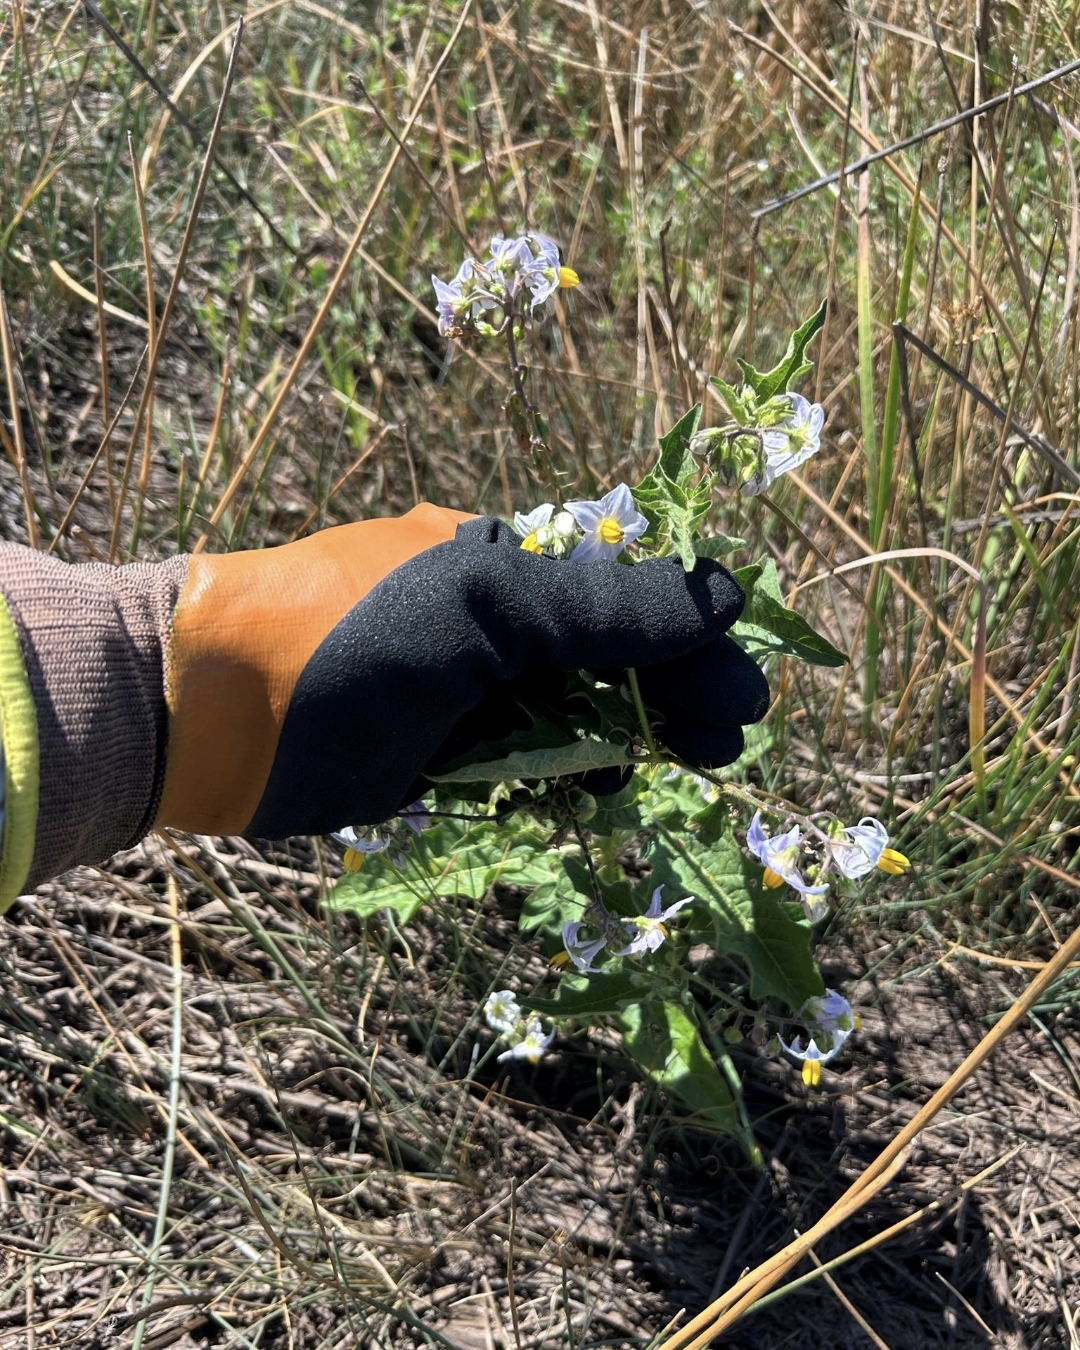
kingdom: Plantae
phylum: Tracheophyta
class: Magnoliopsida
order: Solanales
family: Solanaceae
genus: Solanum
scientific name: Solanum carolinense
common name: Horse-nettle
